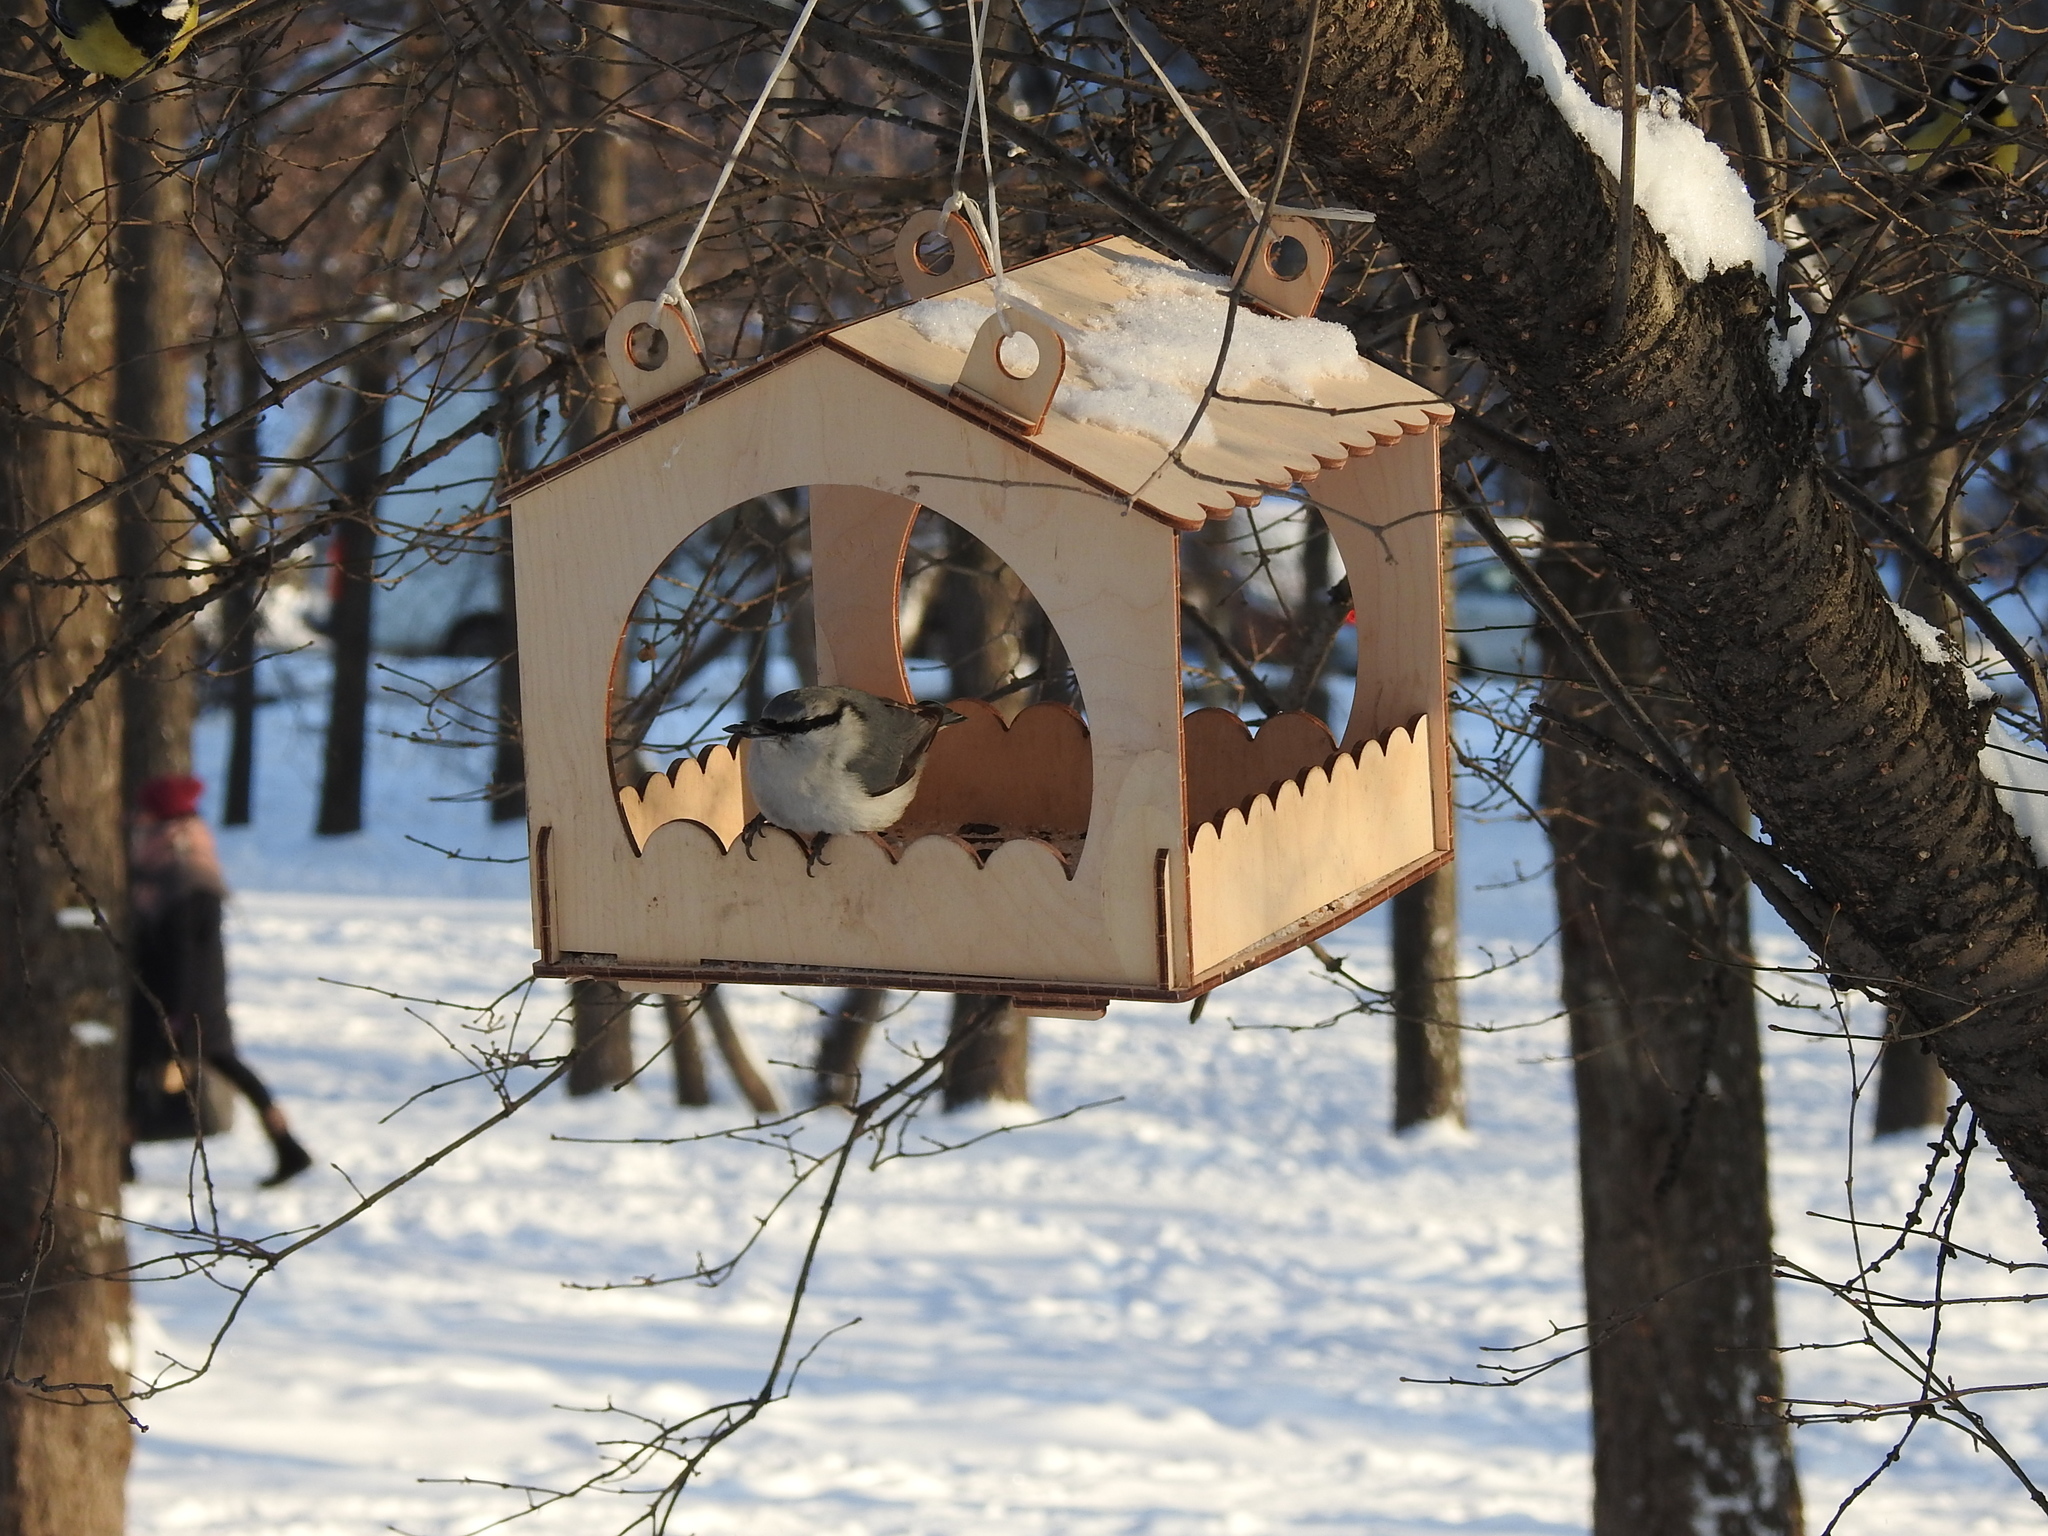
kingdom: Animalia
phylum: Chordata
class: Aves
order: Passeriformes
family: Sittidae
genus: Sitta
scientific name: Sitta europaea
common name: Eurasian nuthatch
